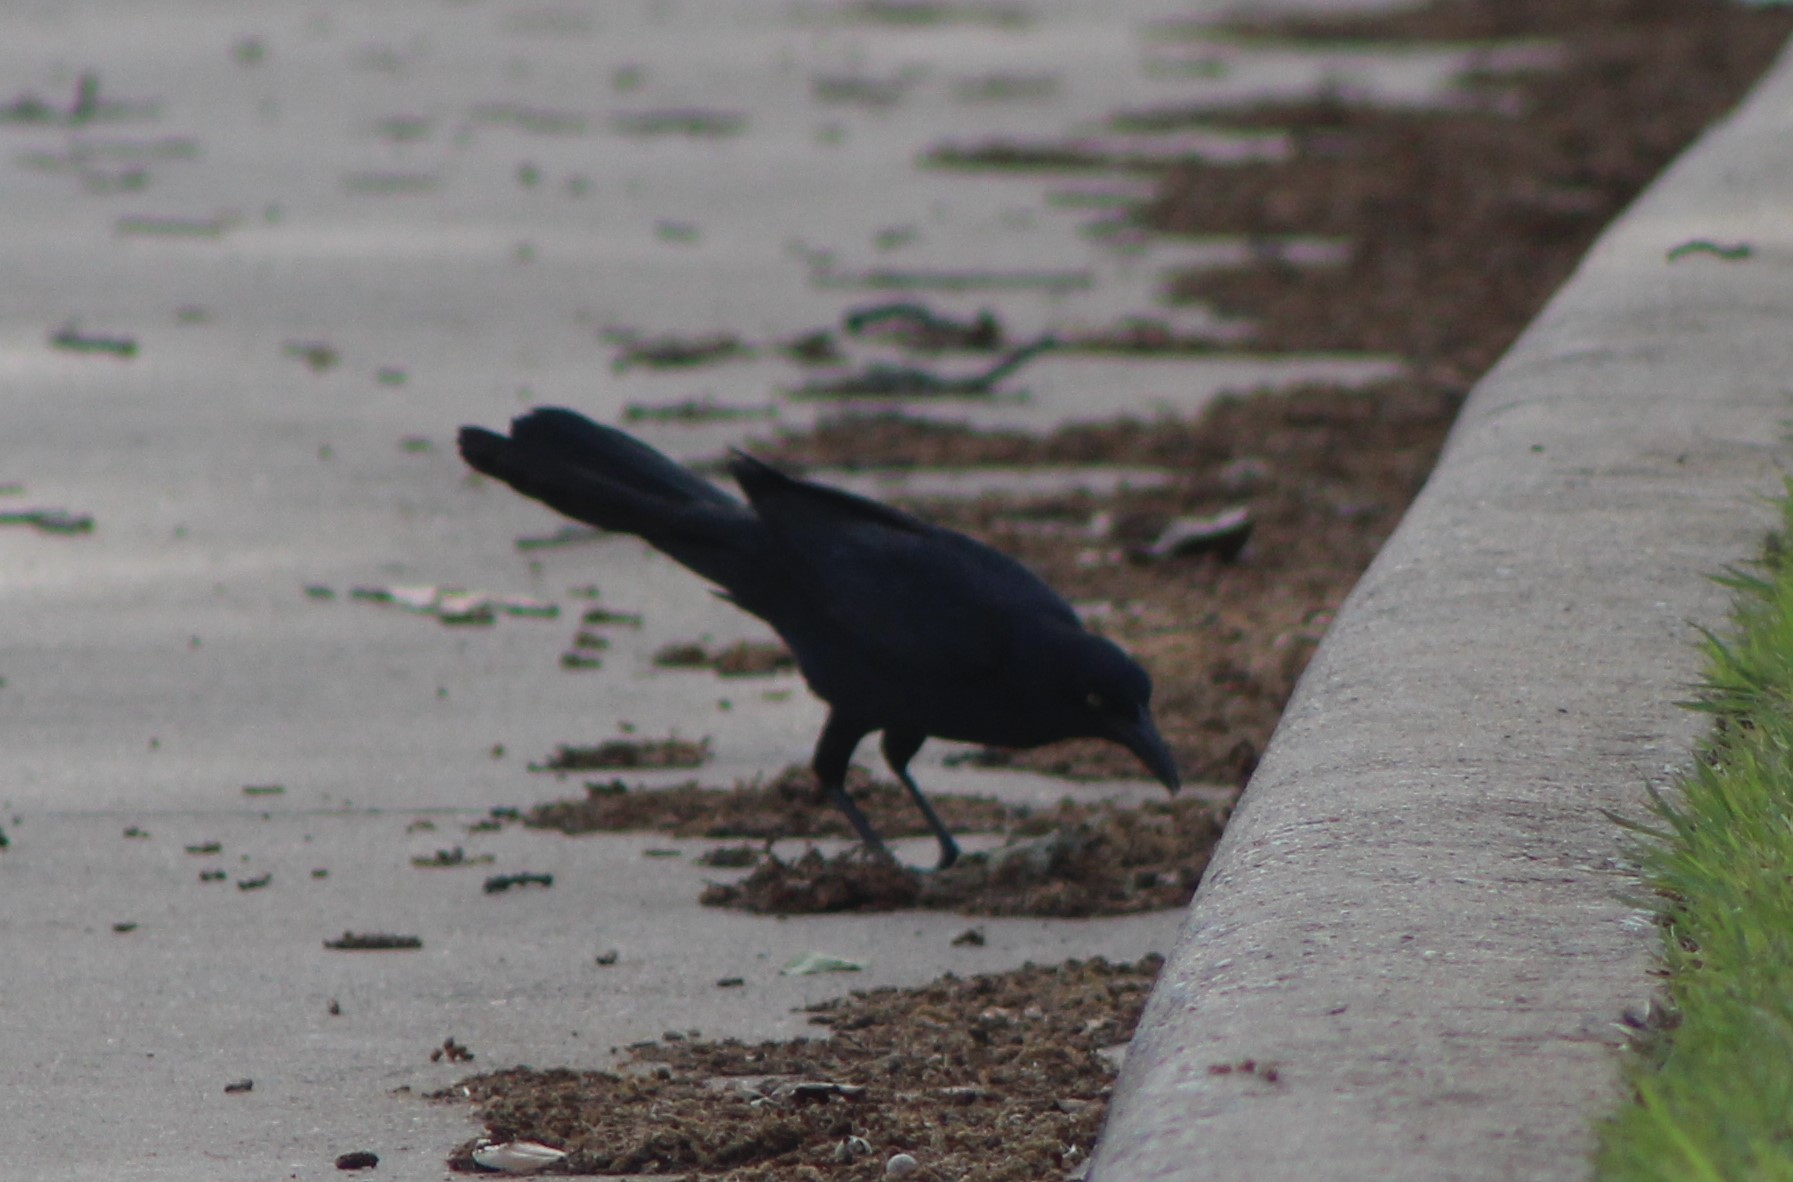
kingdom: Animalia
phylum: Chordata
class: Aves
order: Passeriformes
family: Icteridae
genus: Quiscalus
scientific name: Quiscalus mexicanus
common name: Great-tailed grackle
